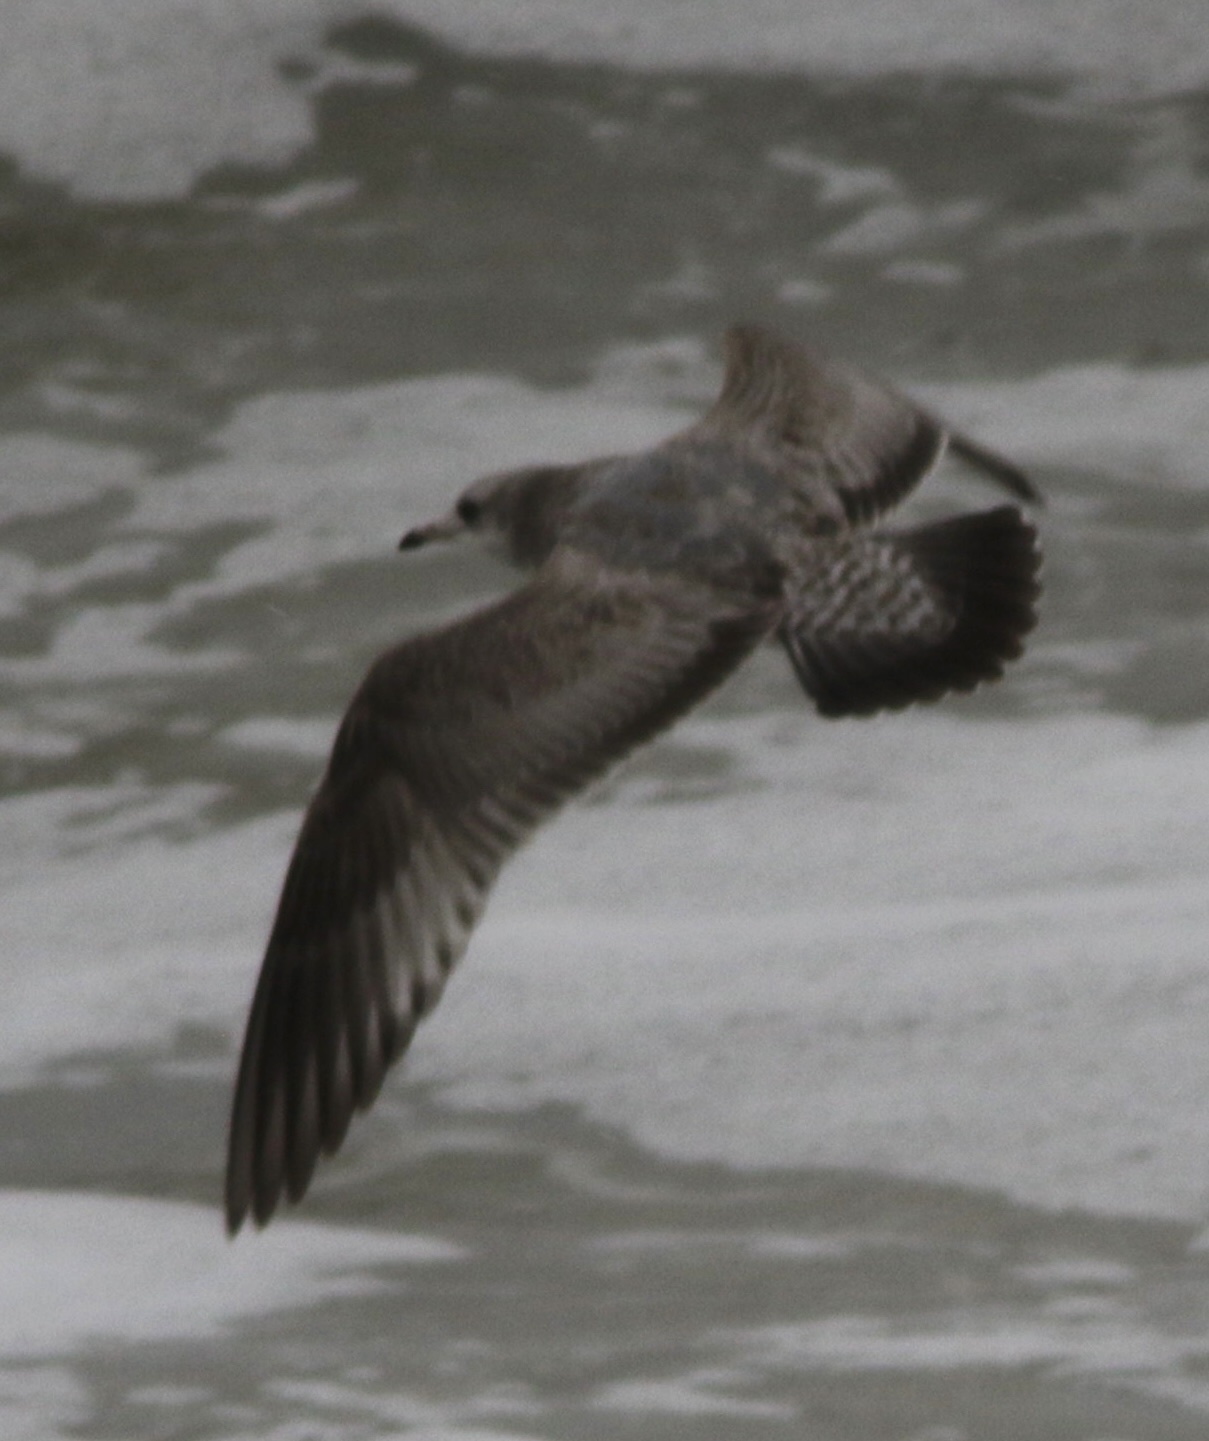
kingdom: Animalia
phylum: Chordata
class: Aves
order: Charadriiformes
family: Laridae
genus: Larus
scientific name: Larus californicus
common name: California gull
